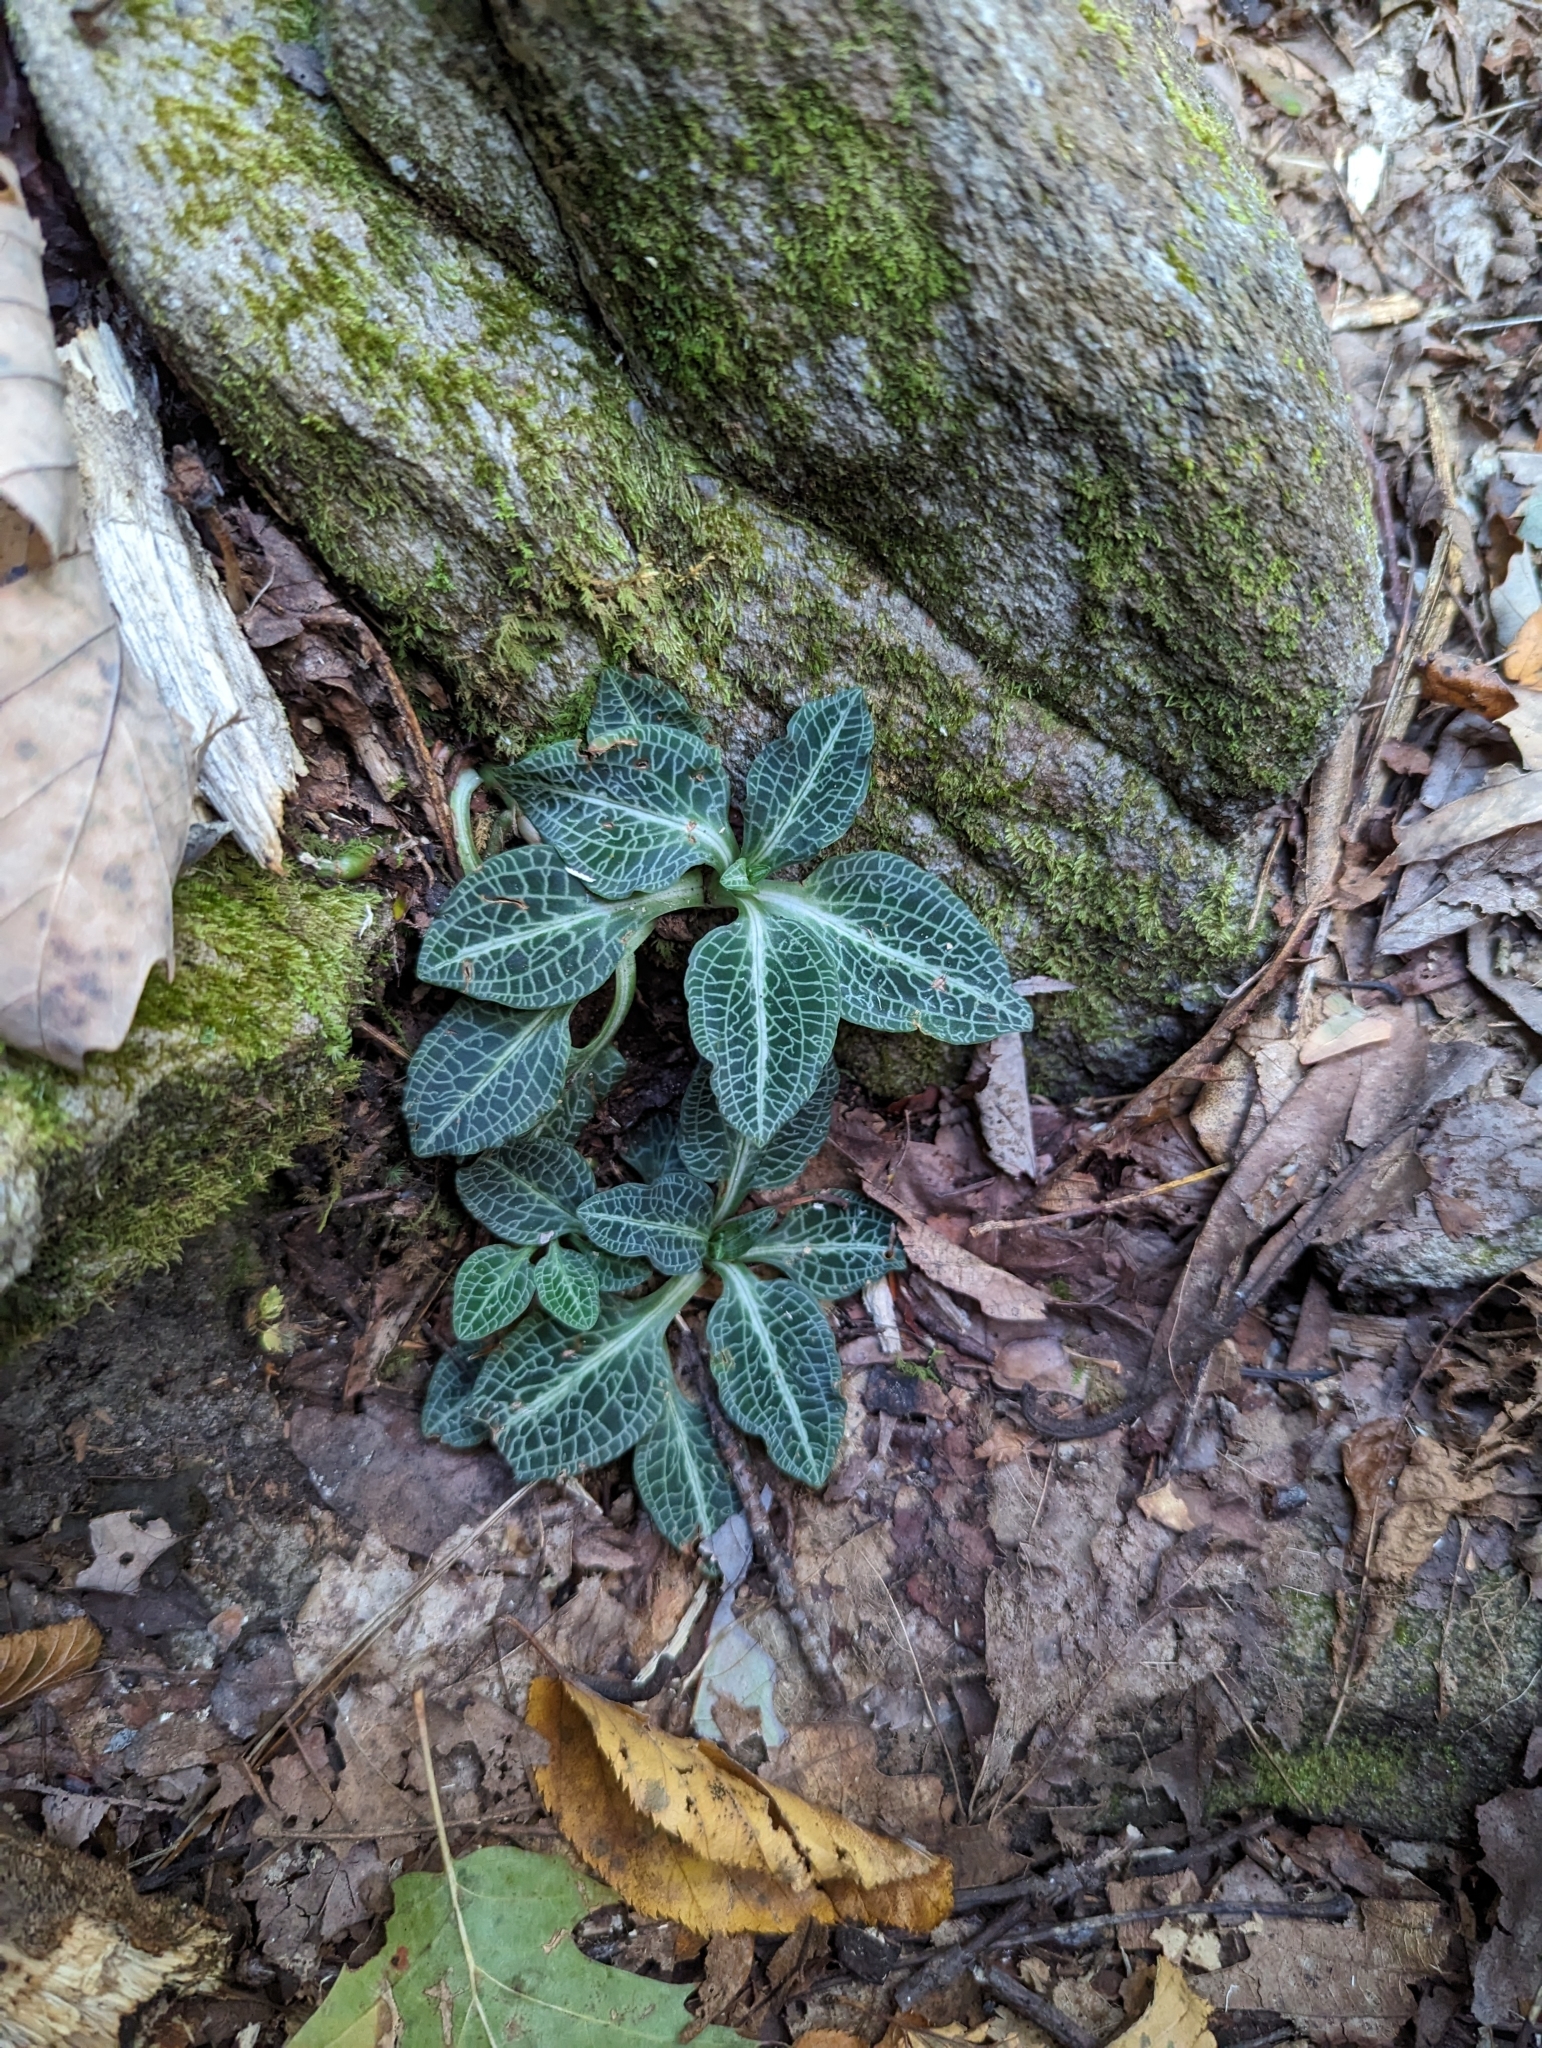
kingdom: Plantae
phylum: Tracheophyta
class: Liliopsida
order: Asparagales
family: Orchidaceae
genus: Goodyera
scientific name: Goodyera pubescens
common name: Downy rattlesnake-plantain
